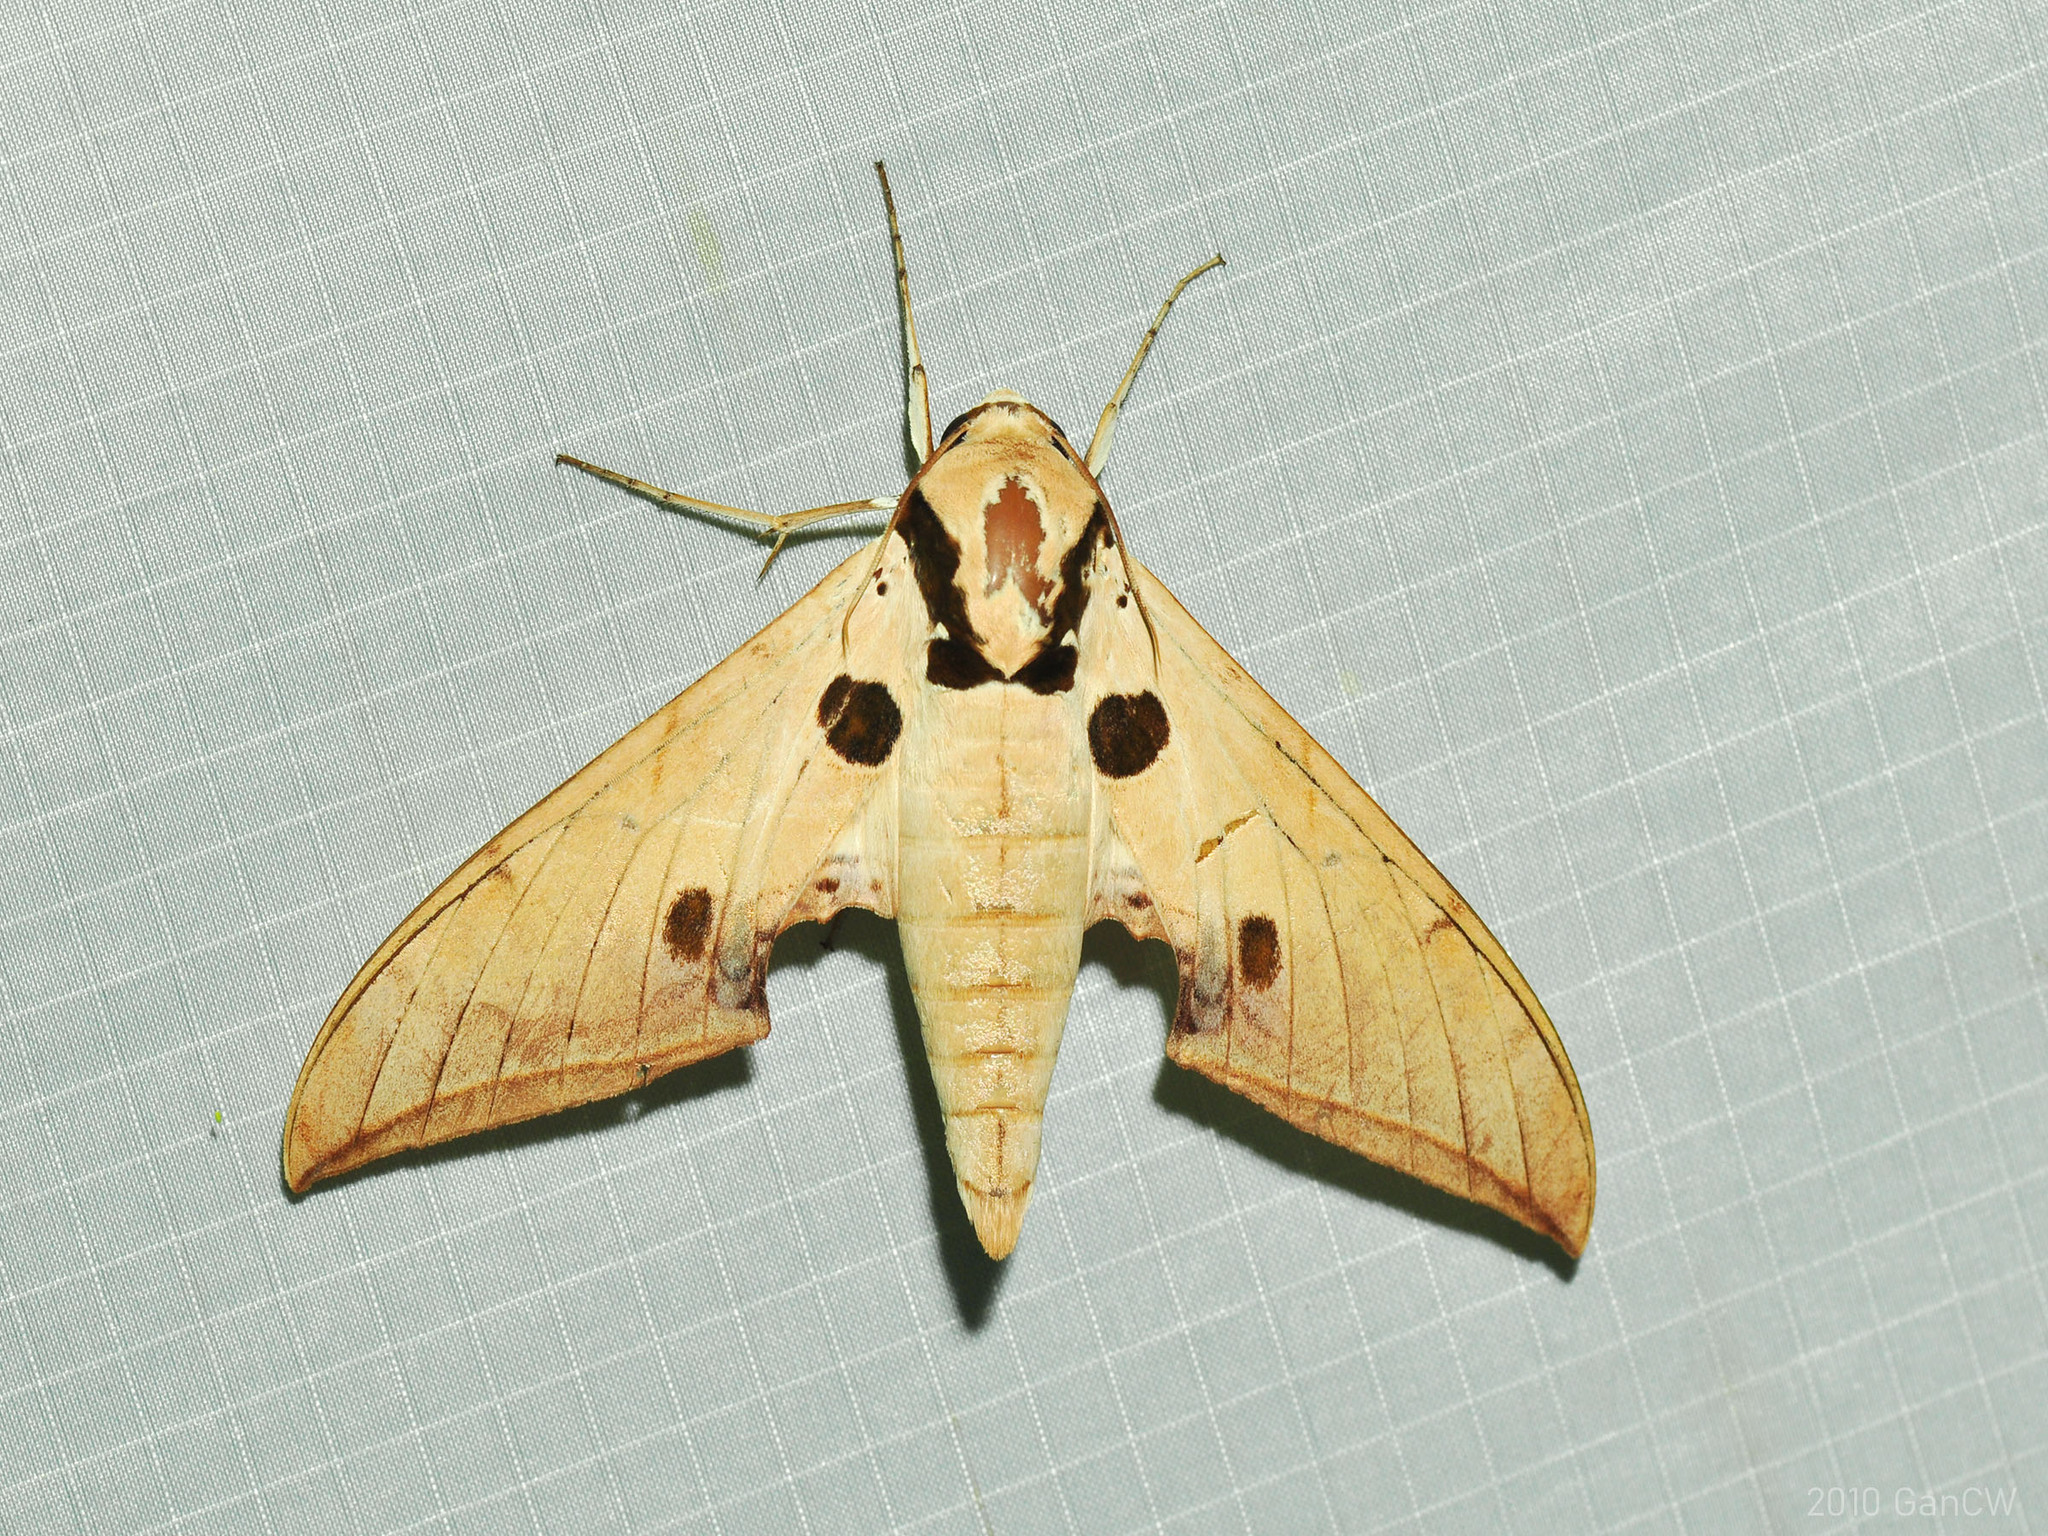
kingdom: Animalia
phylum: Arthropoda
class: Insecta
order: Lepidoptera
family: Sphingidae
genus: Ambulyx
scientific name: Ambulyx obliterata
